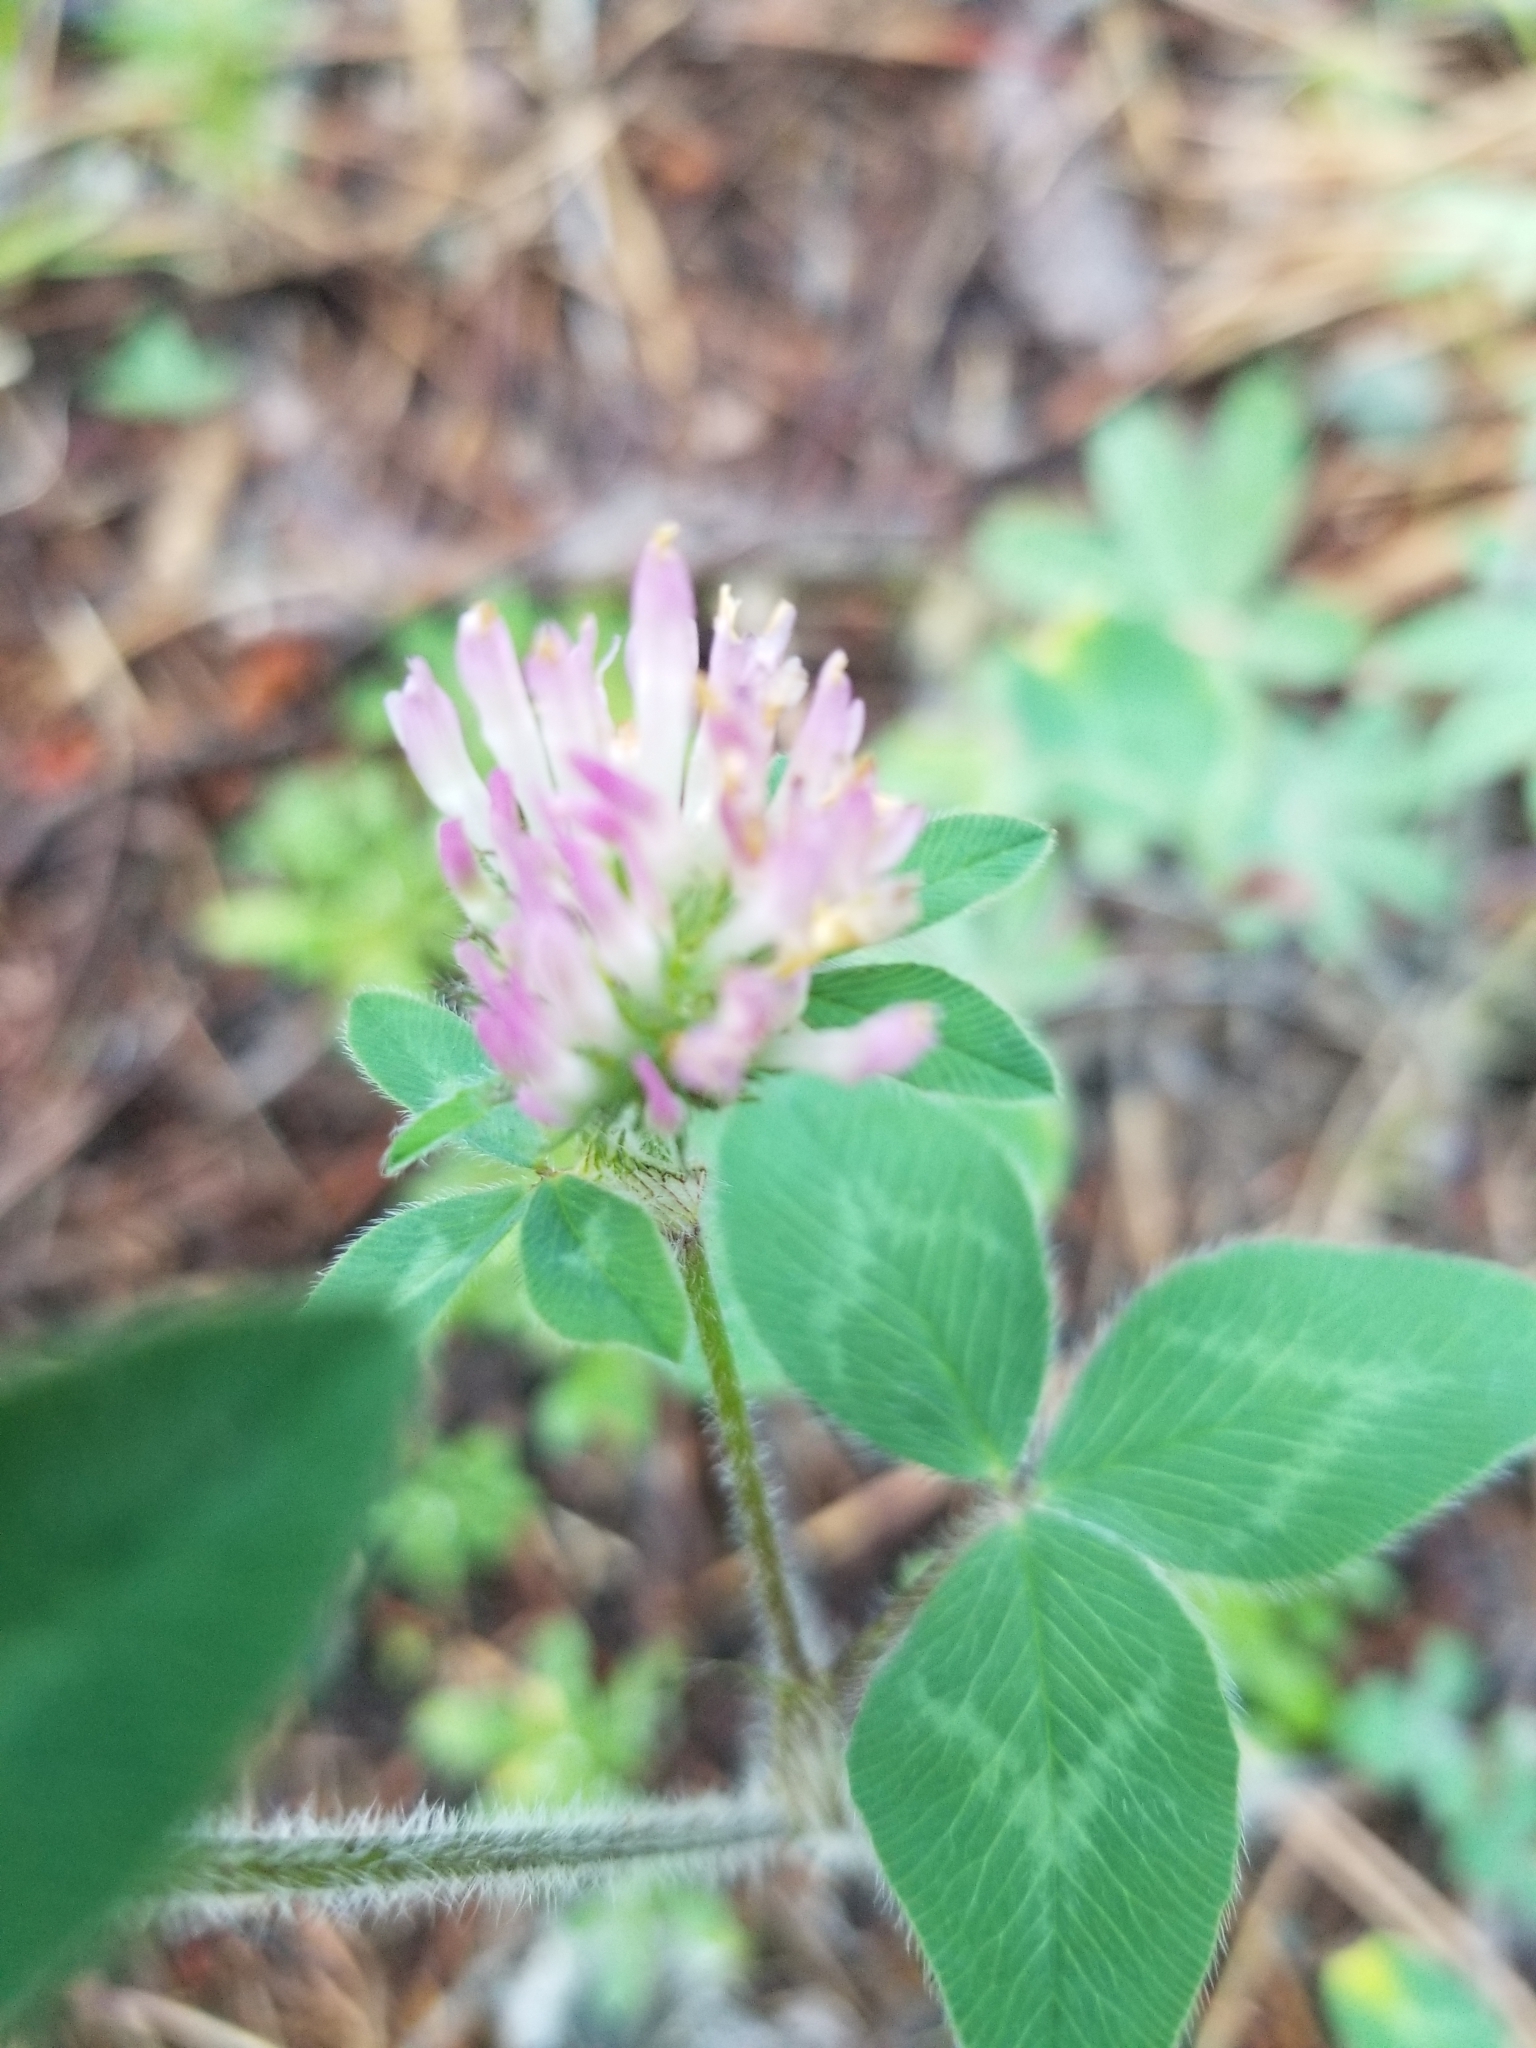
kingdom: Plantae
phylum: Tracheophyta
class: Magnoliopsida
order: Fabales
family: Fabaceae
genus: Trifolium
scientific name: Trifolium pratense
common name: Red clover
